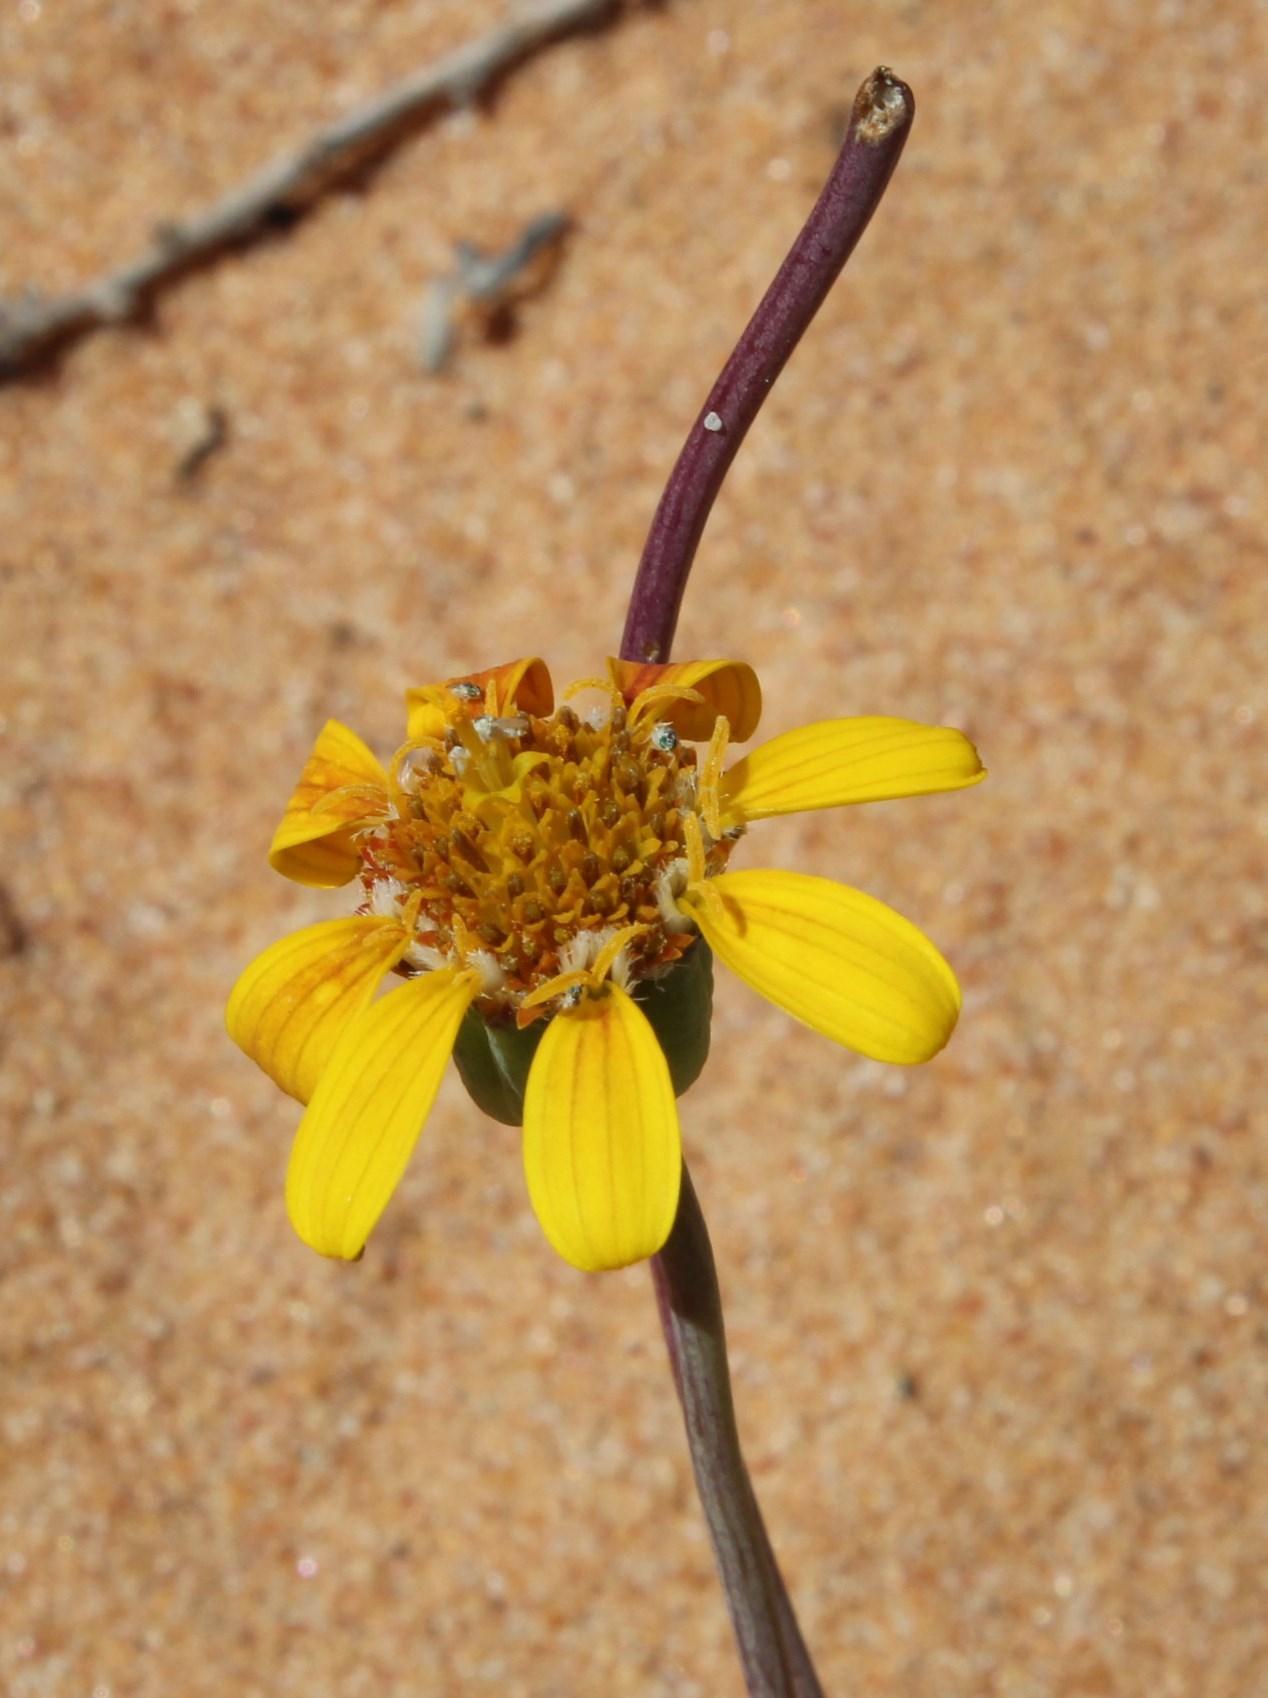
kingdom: Plantae
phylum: Tracheophyta
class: Magnoliopsida
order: Asterales
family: Asteraceae
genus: Othonna
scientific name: Othonna coronopifolia
